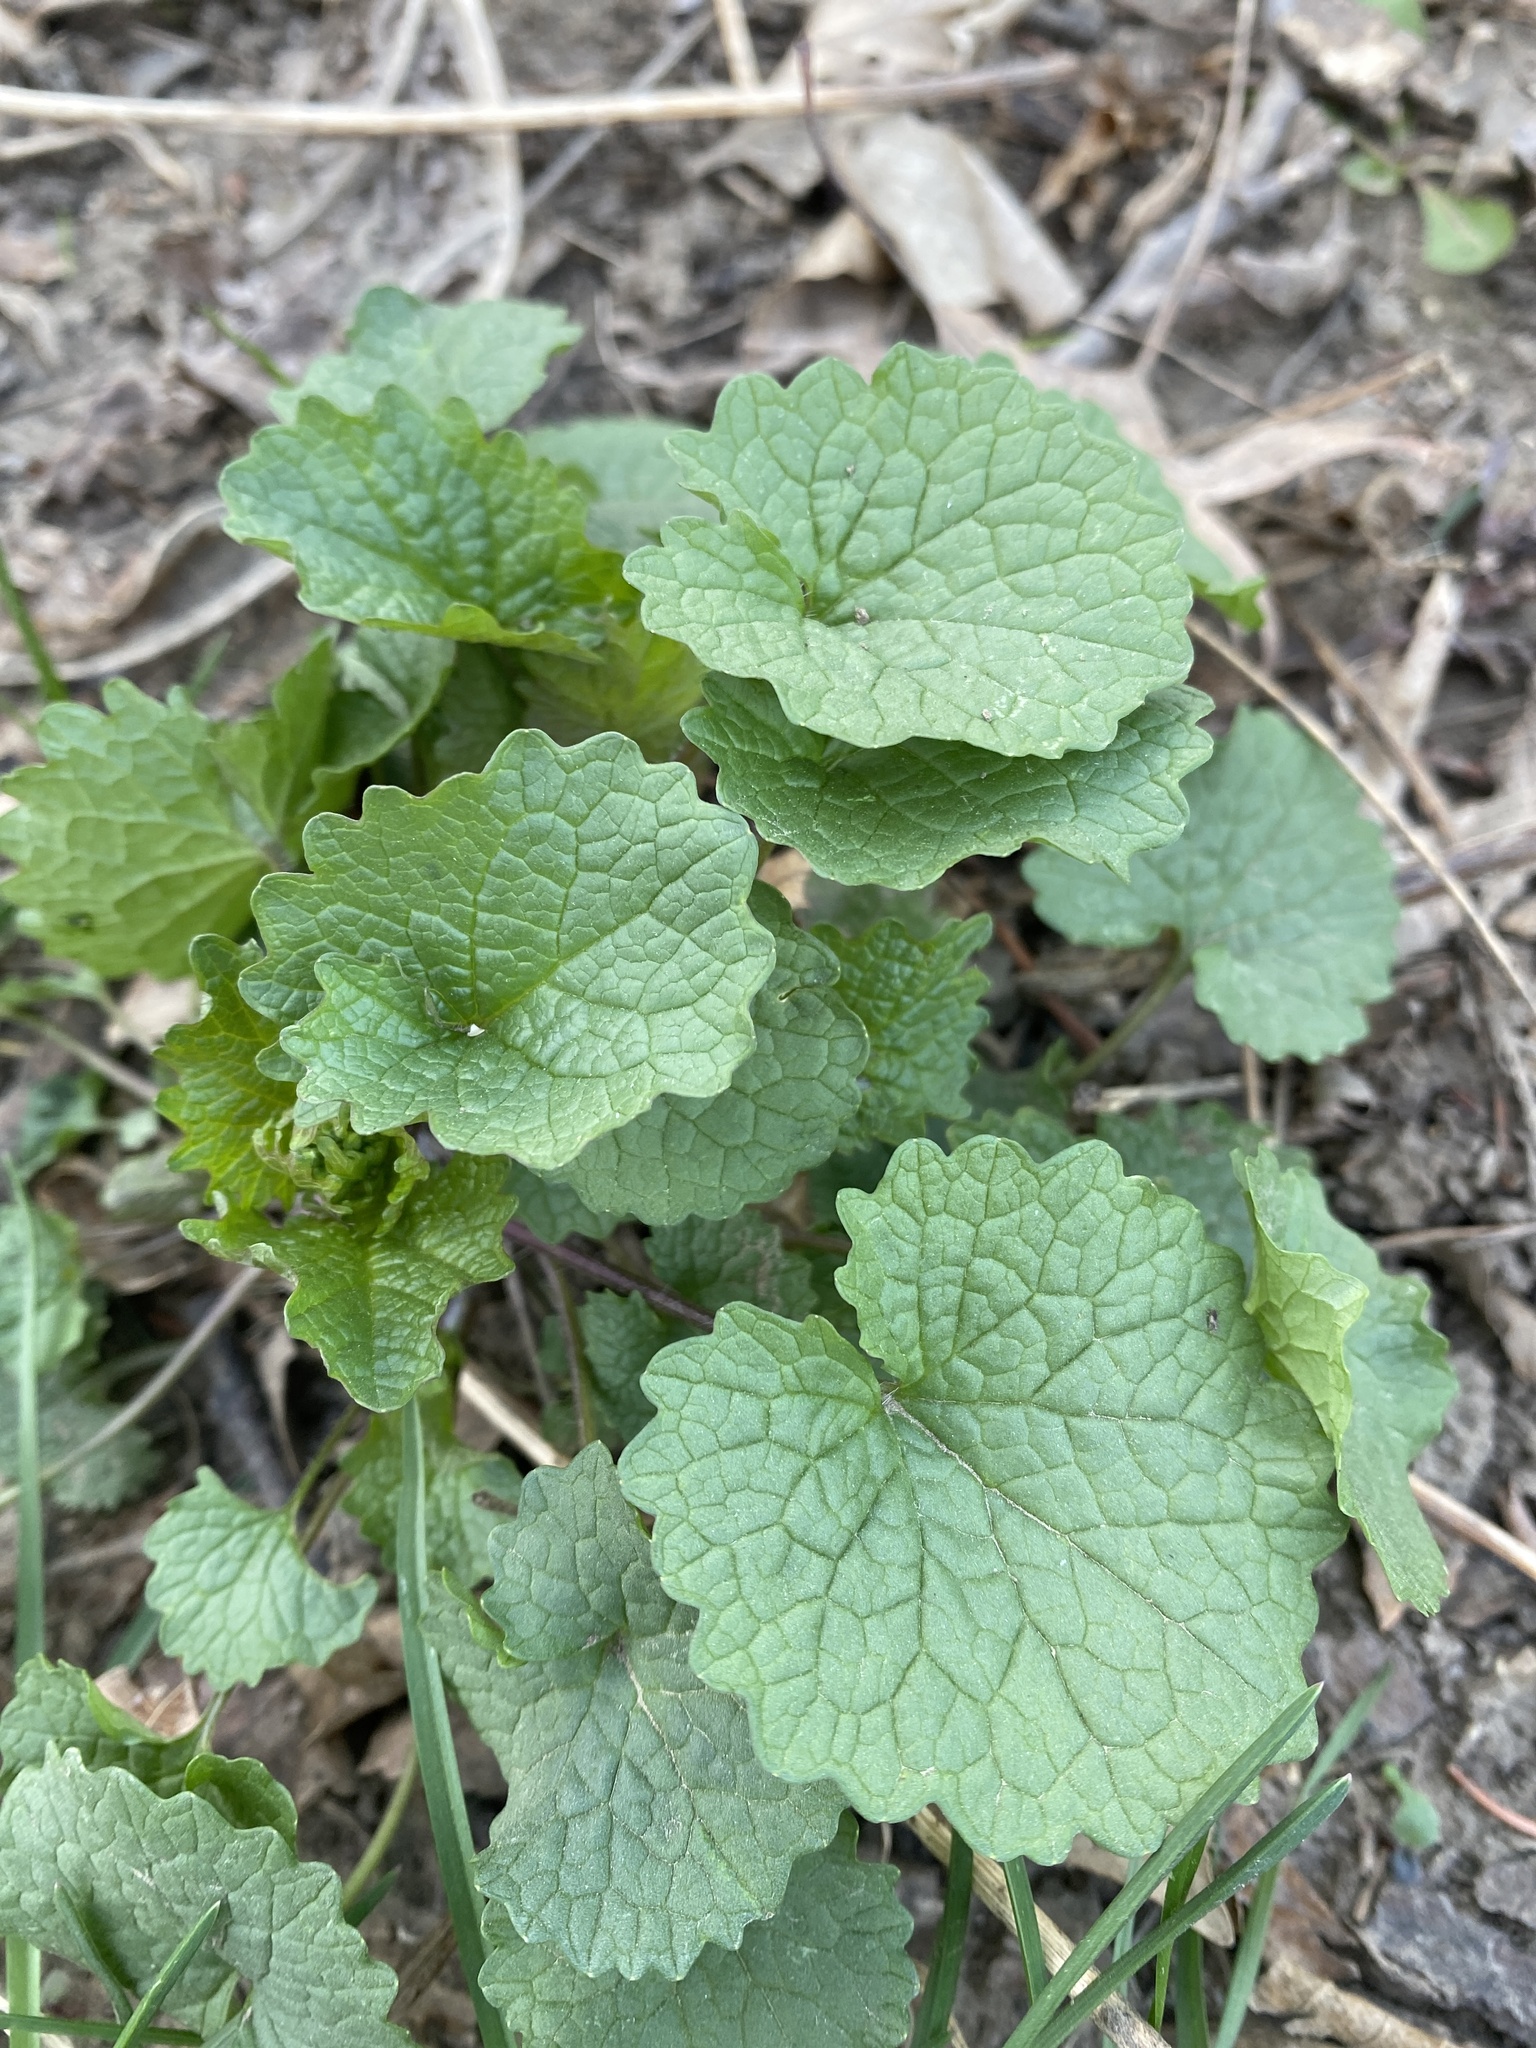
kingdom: Plantae
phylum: Tracheophyta
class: Magnoliopsida
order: Brassicales
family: Brassicaceae
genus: Alliaria
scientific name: Alliaria petiolata
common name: Garlic mustard
